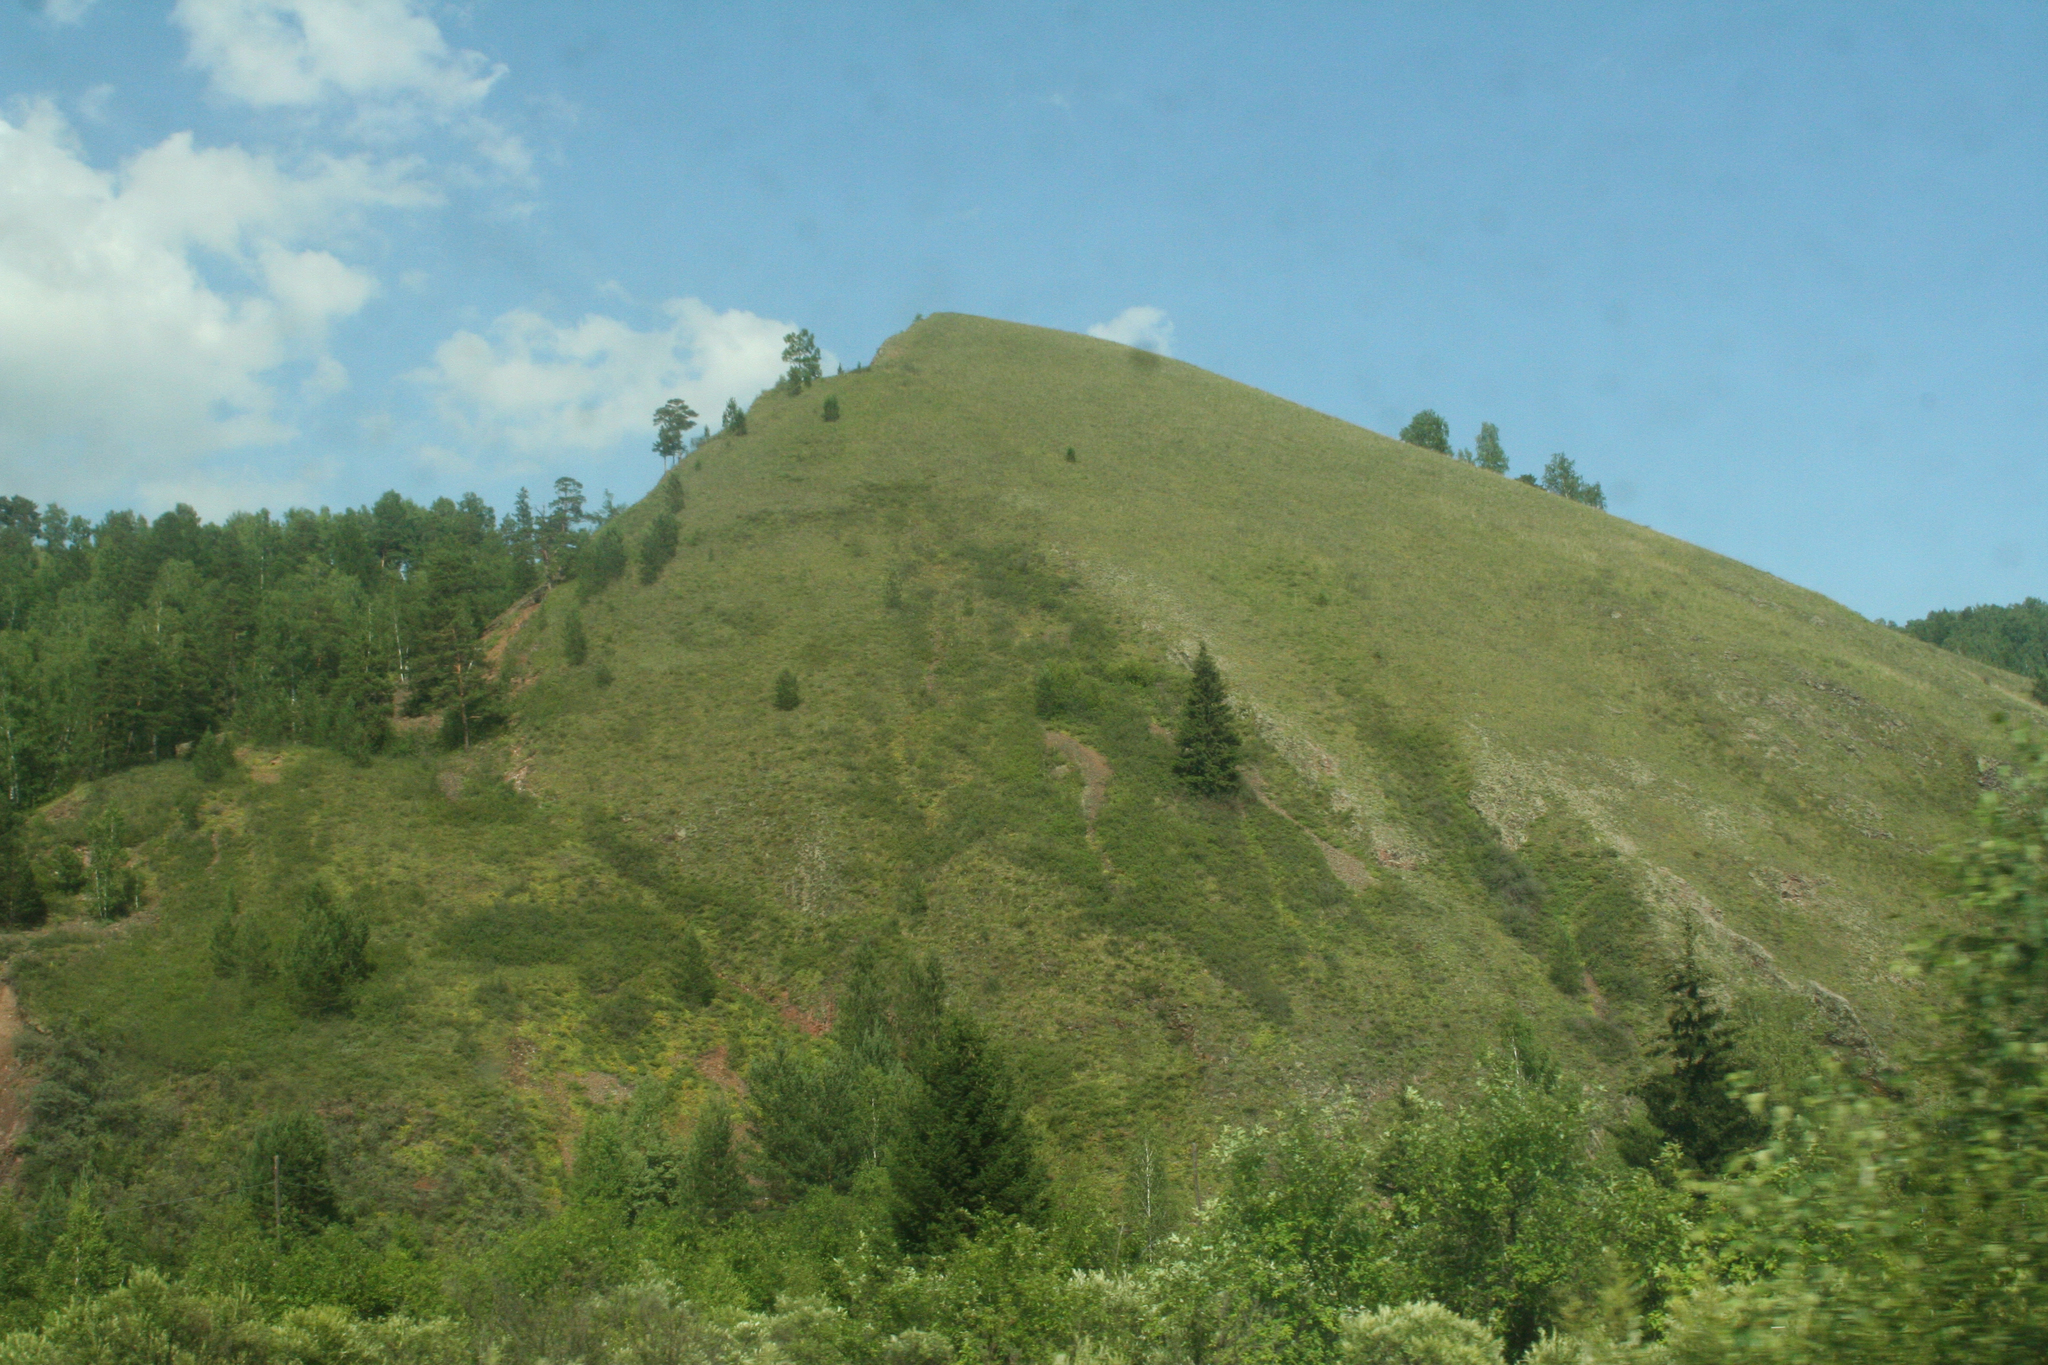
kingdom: Plantae
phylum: Tracheophyta
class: Pinopsida
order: Pinales
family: Pinaceae
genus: Picea
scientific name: Picea obovata
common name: Siberian spruce
